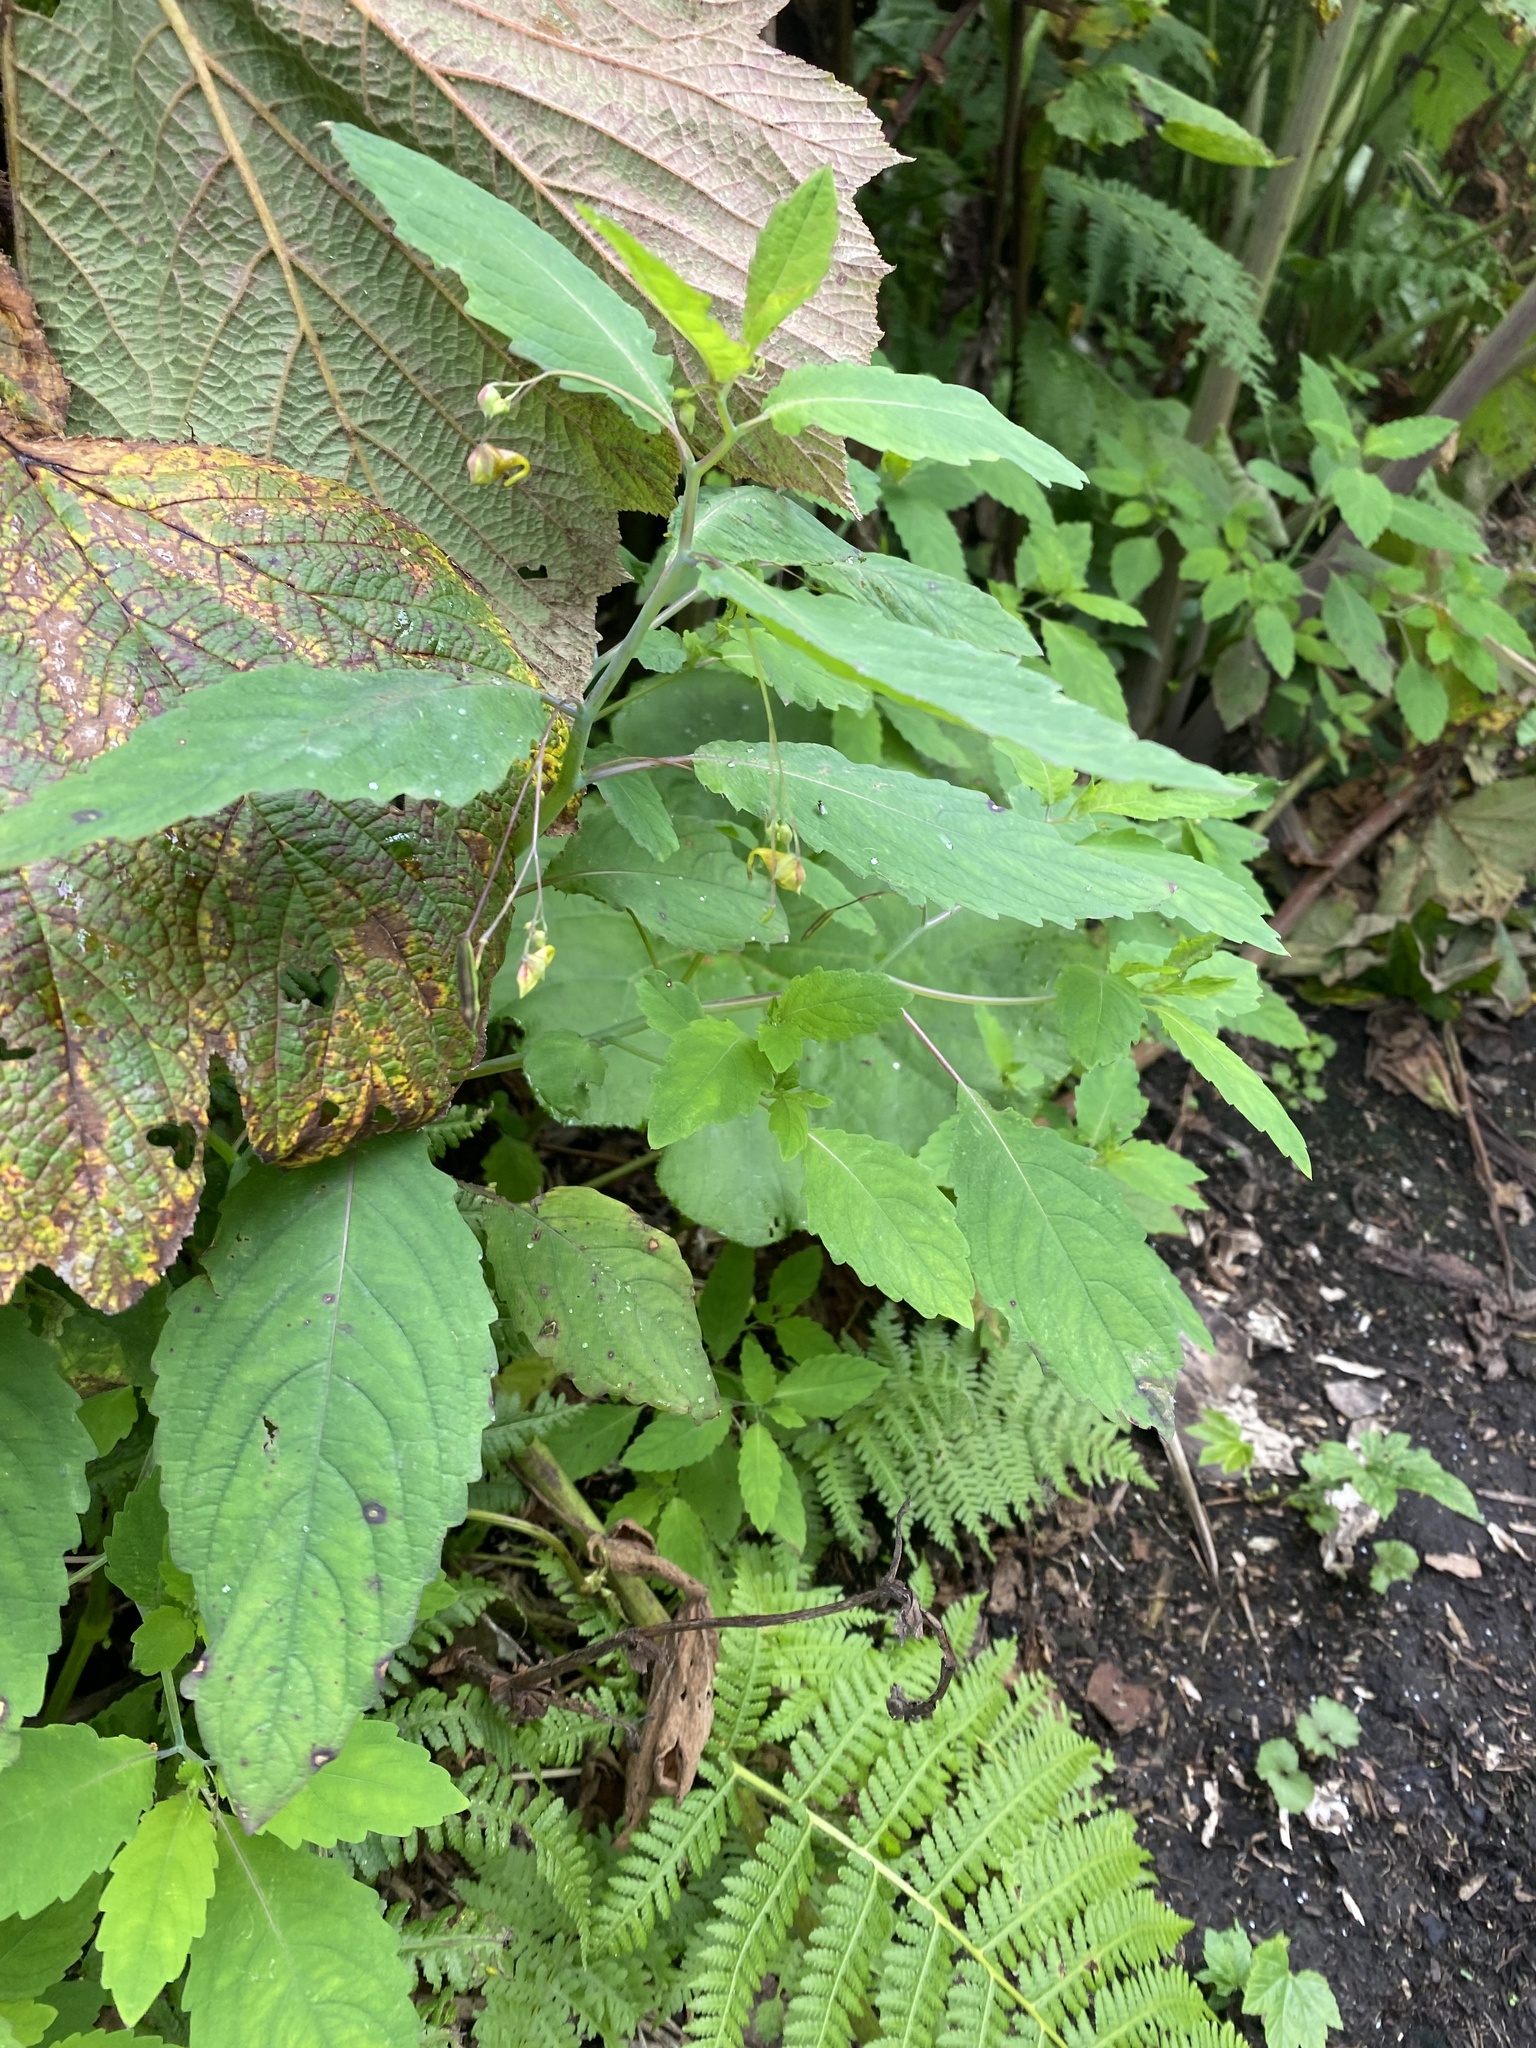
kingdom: Plantae
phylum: Tracheophyta
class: Magnoliopsida
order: Ericales
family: Balsaminaceae
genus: Impatiens
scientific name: Impatiens noli-tangere
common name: Touch-me-not balsam
